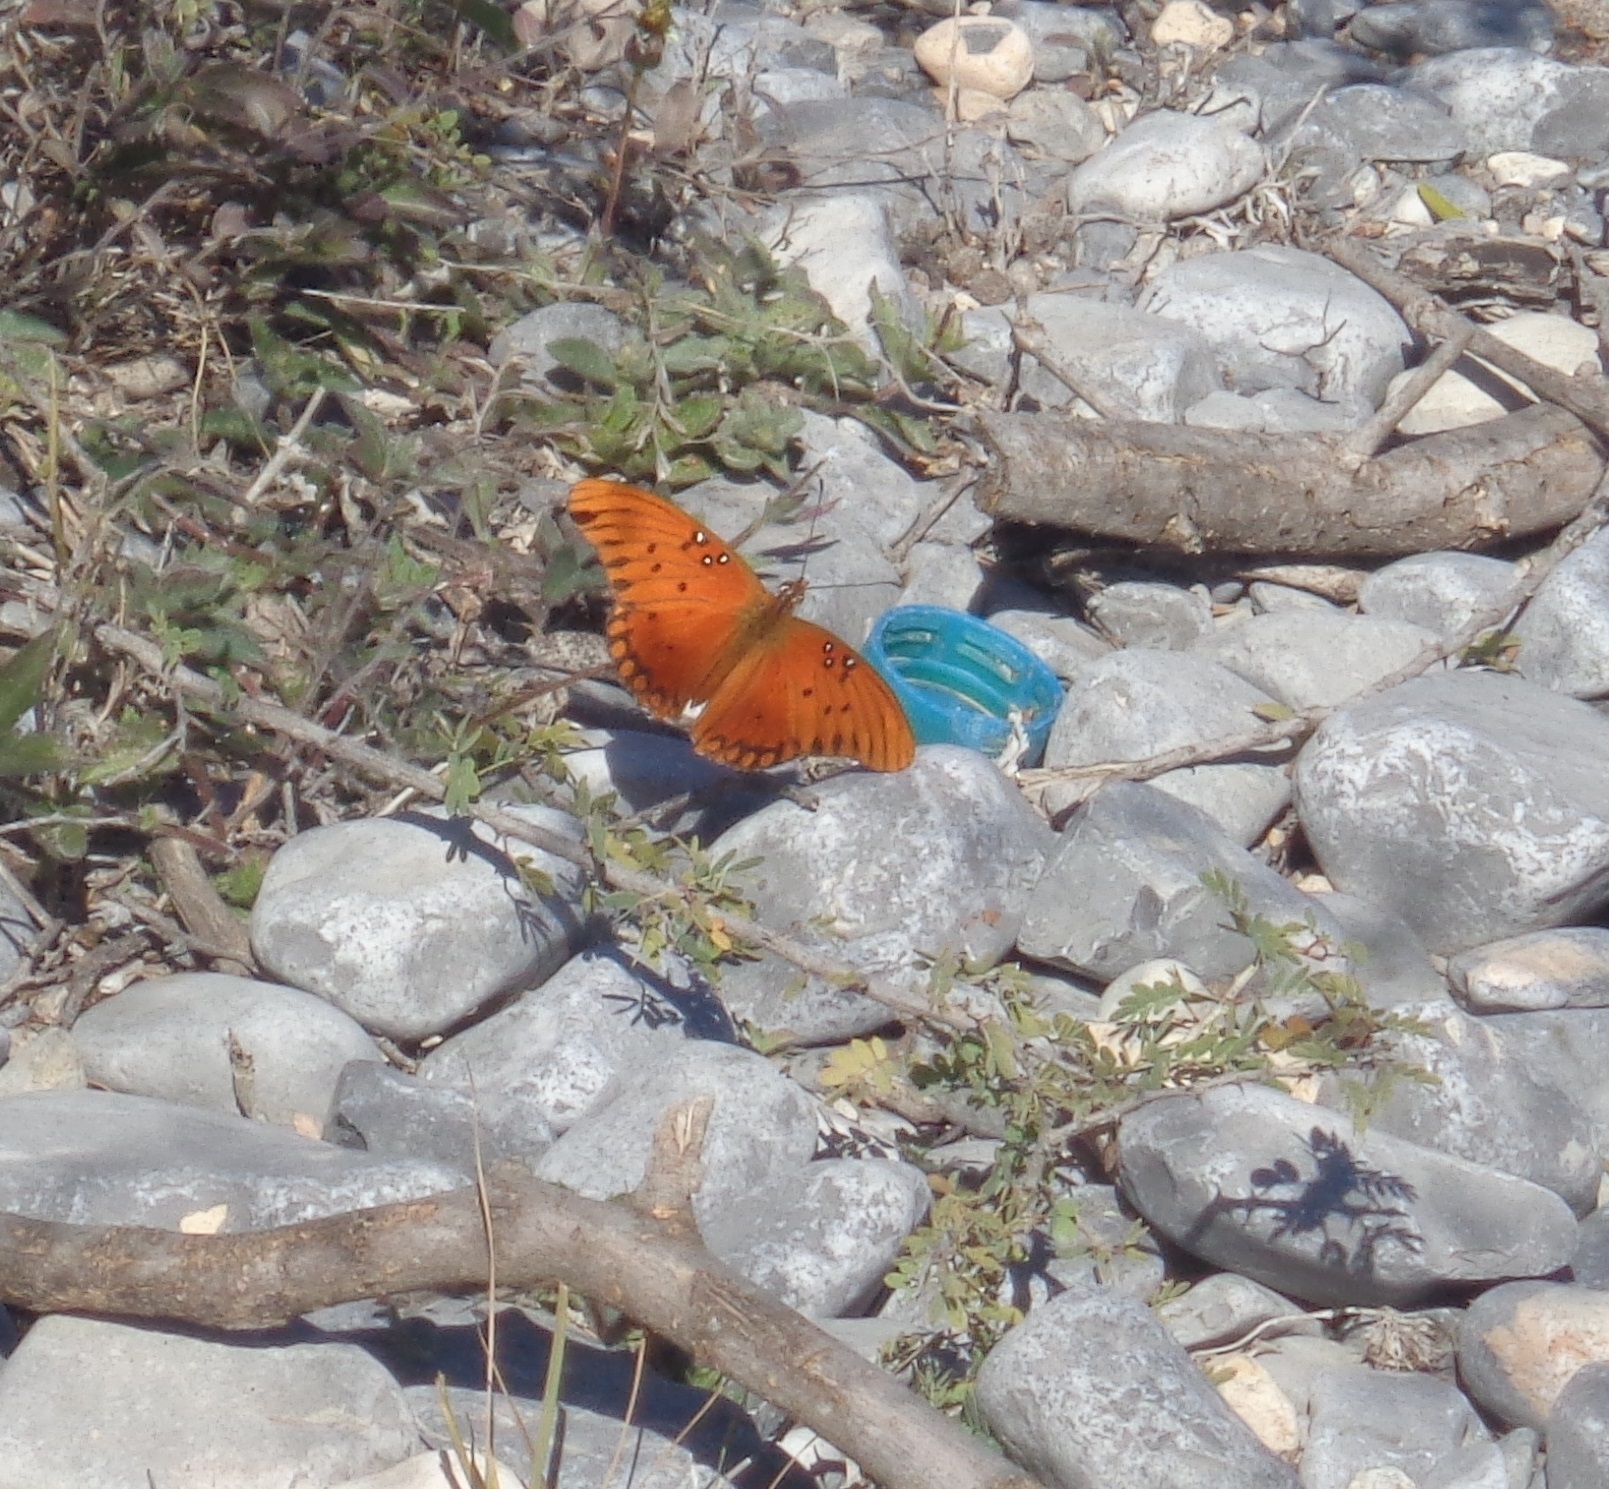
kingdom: Animalia
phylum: Arthropoda
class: Insecta
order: Lepidoptera
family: Nymphalidae
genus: Dione
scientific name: Dione vanillae
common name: Gulf fritillary
